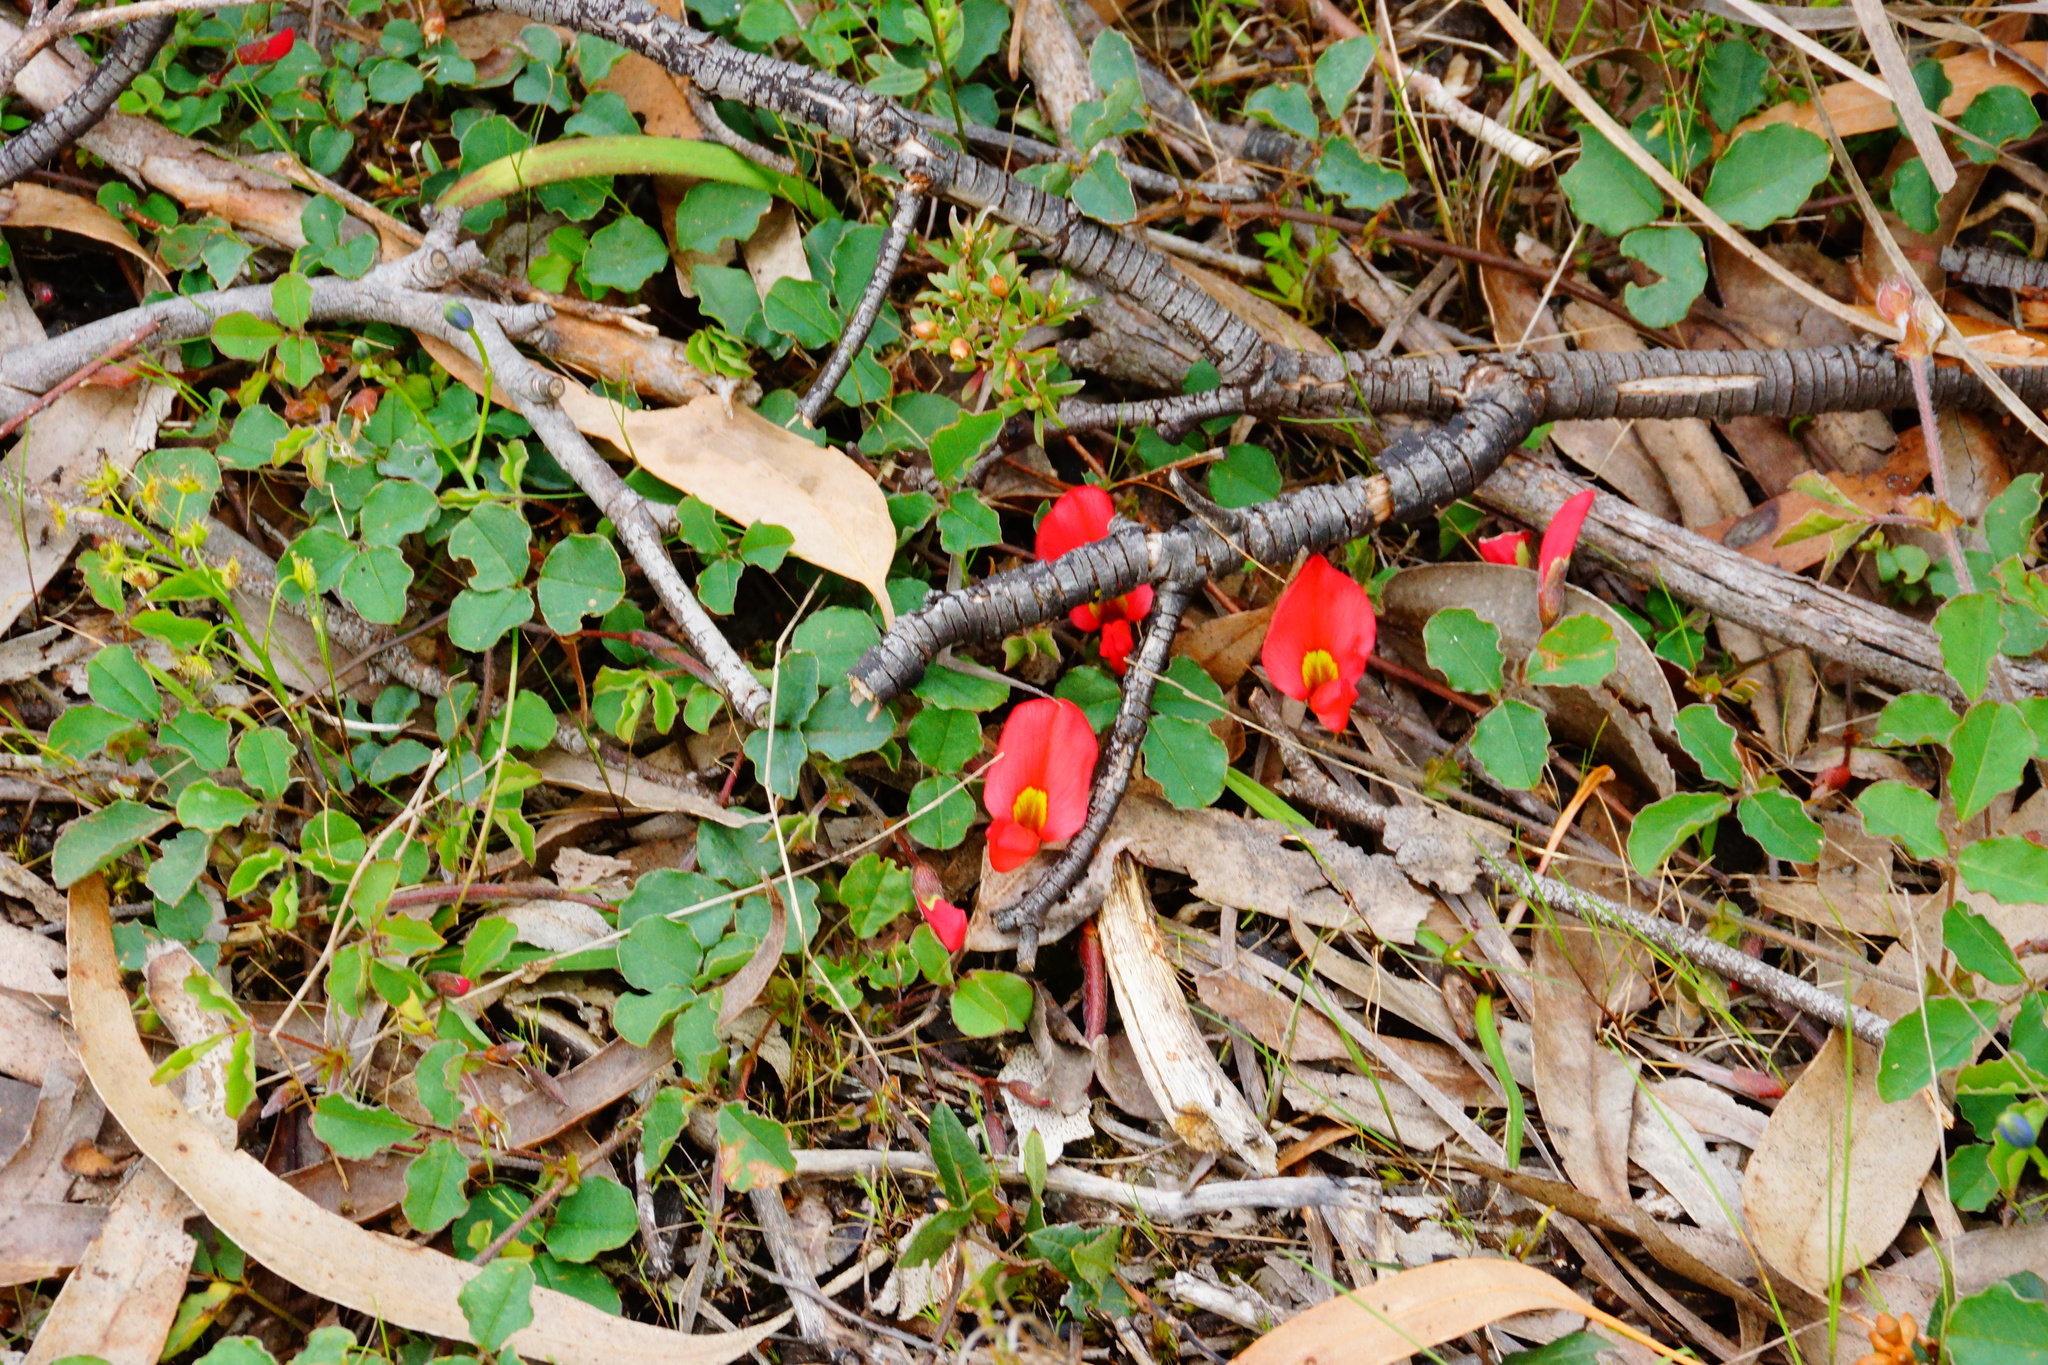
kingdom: Plantae
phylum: Tracheophyta
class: Magnoliopsida
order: Fabales
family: Fabaceae
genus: Kennedia
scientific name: Kennedia prostrata
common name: Running-postman
